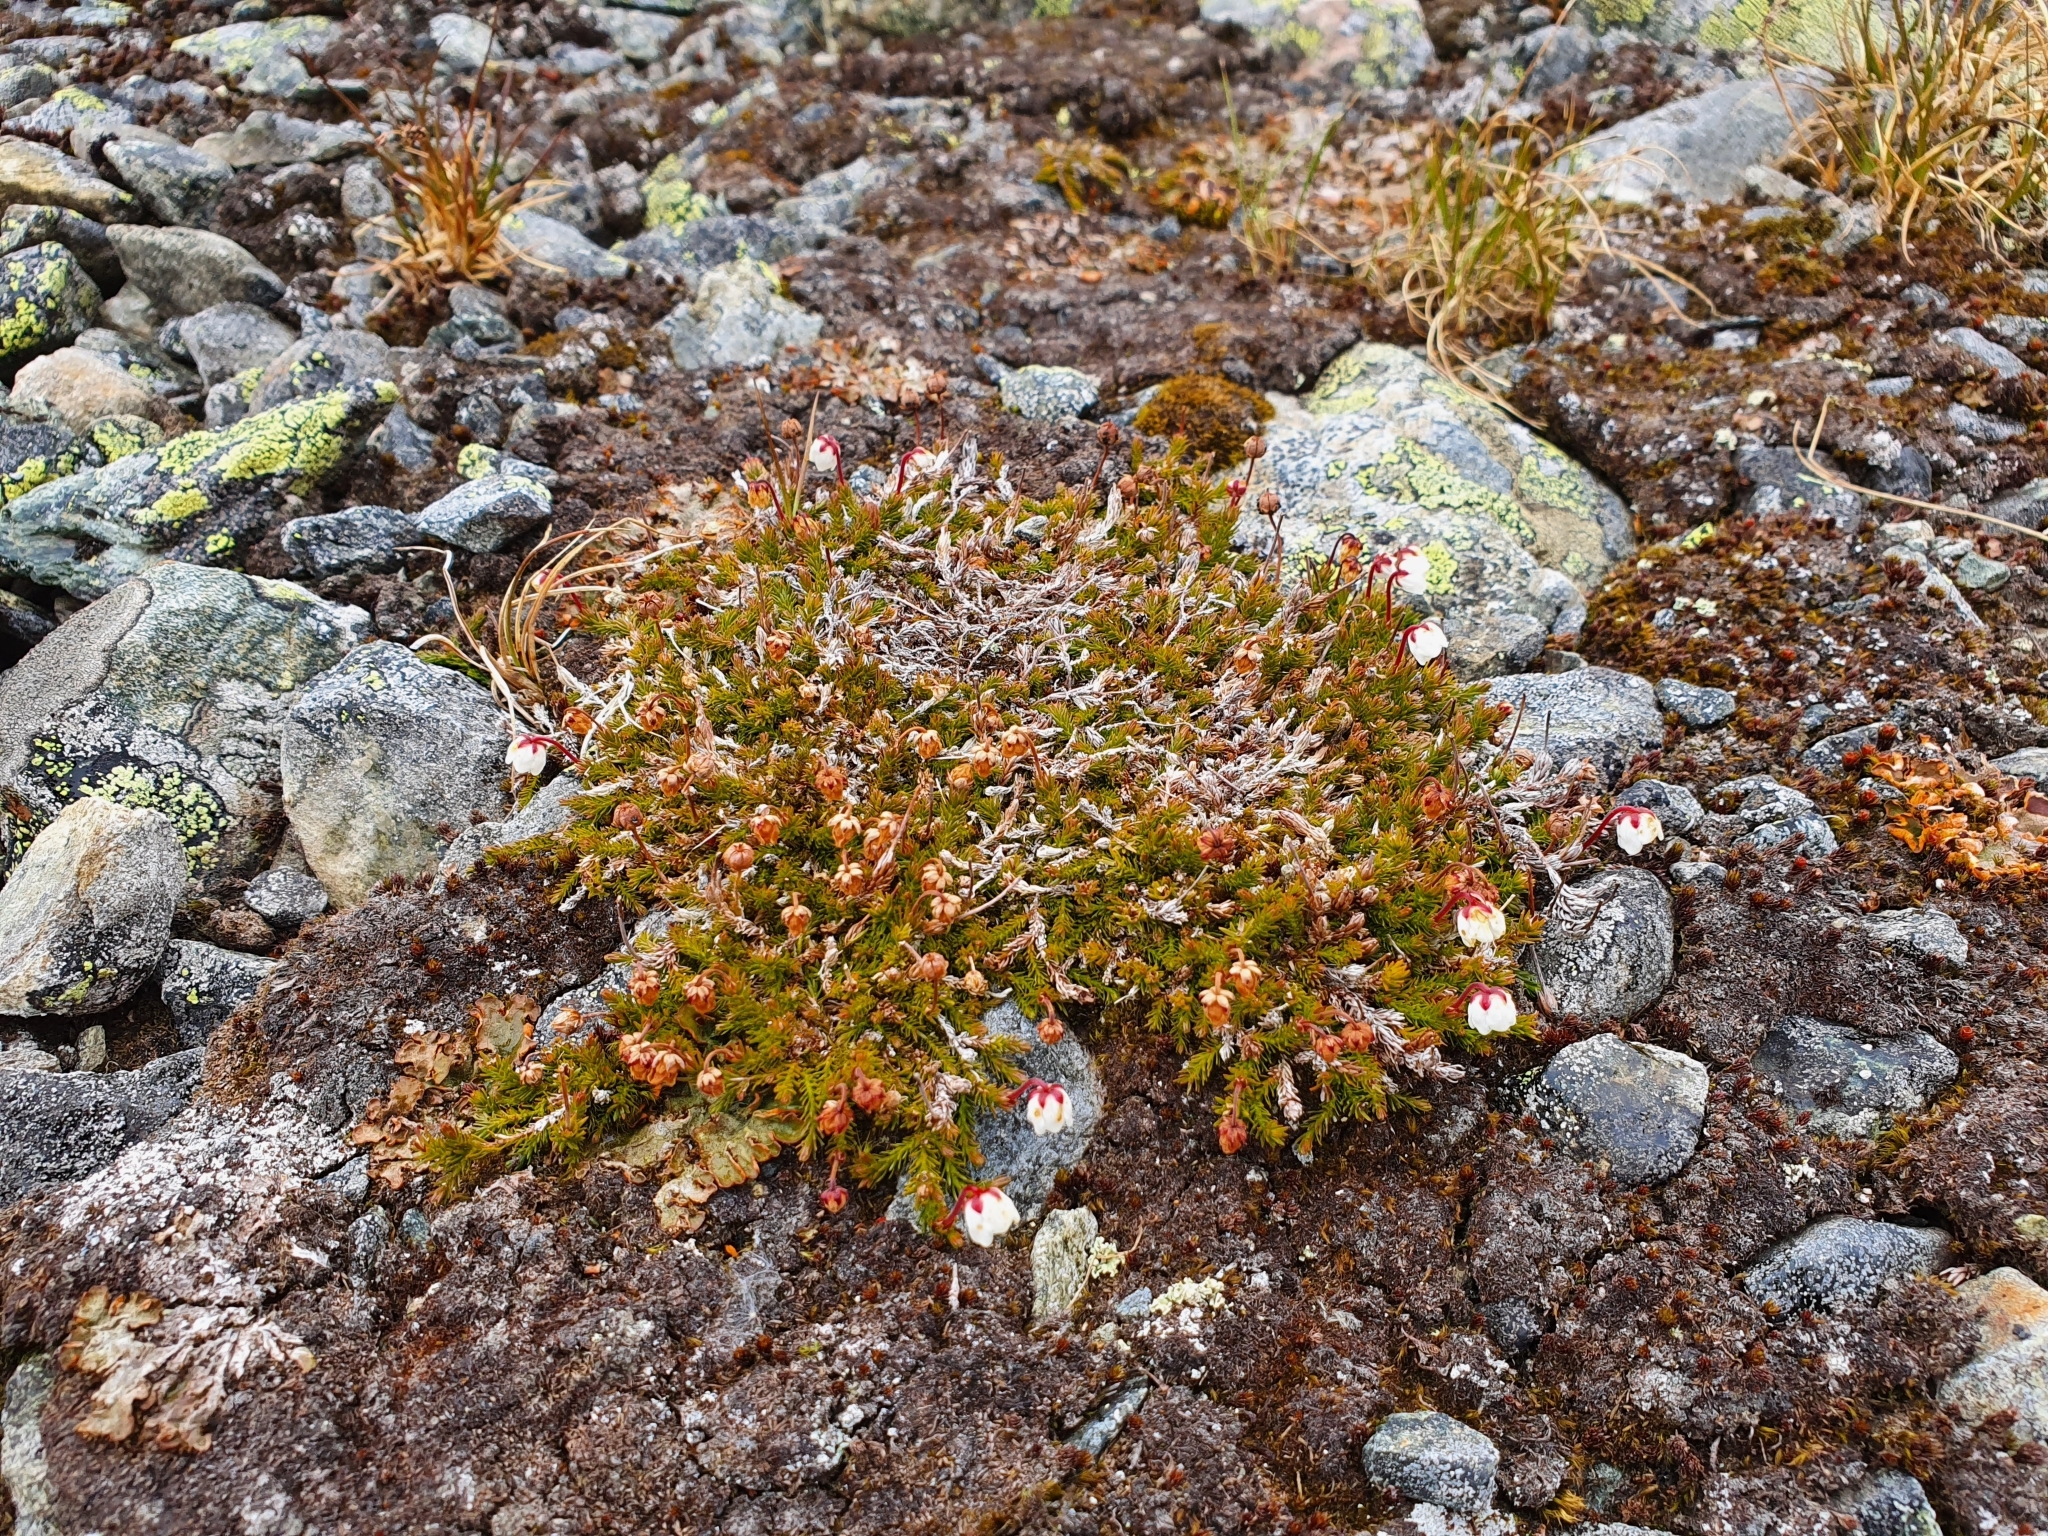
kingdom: Plantae
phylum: Tracheophyta
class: Magnoliopsida
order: Ericales
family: Ericaceae
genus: Harrimanella
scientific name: Harrimanella hypnoides
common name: Moss bell heather
